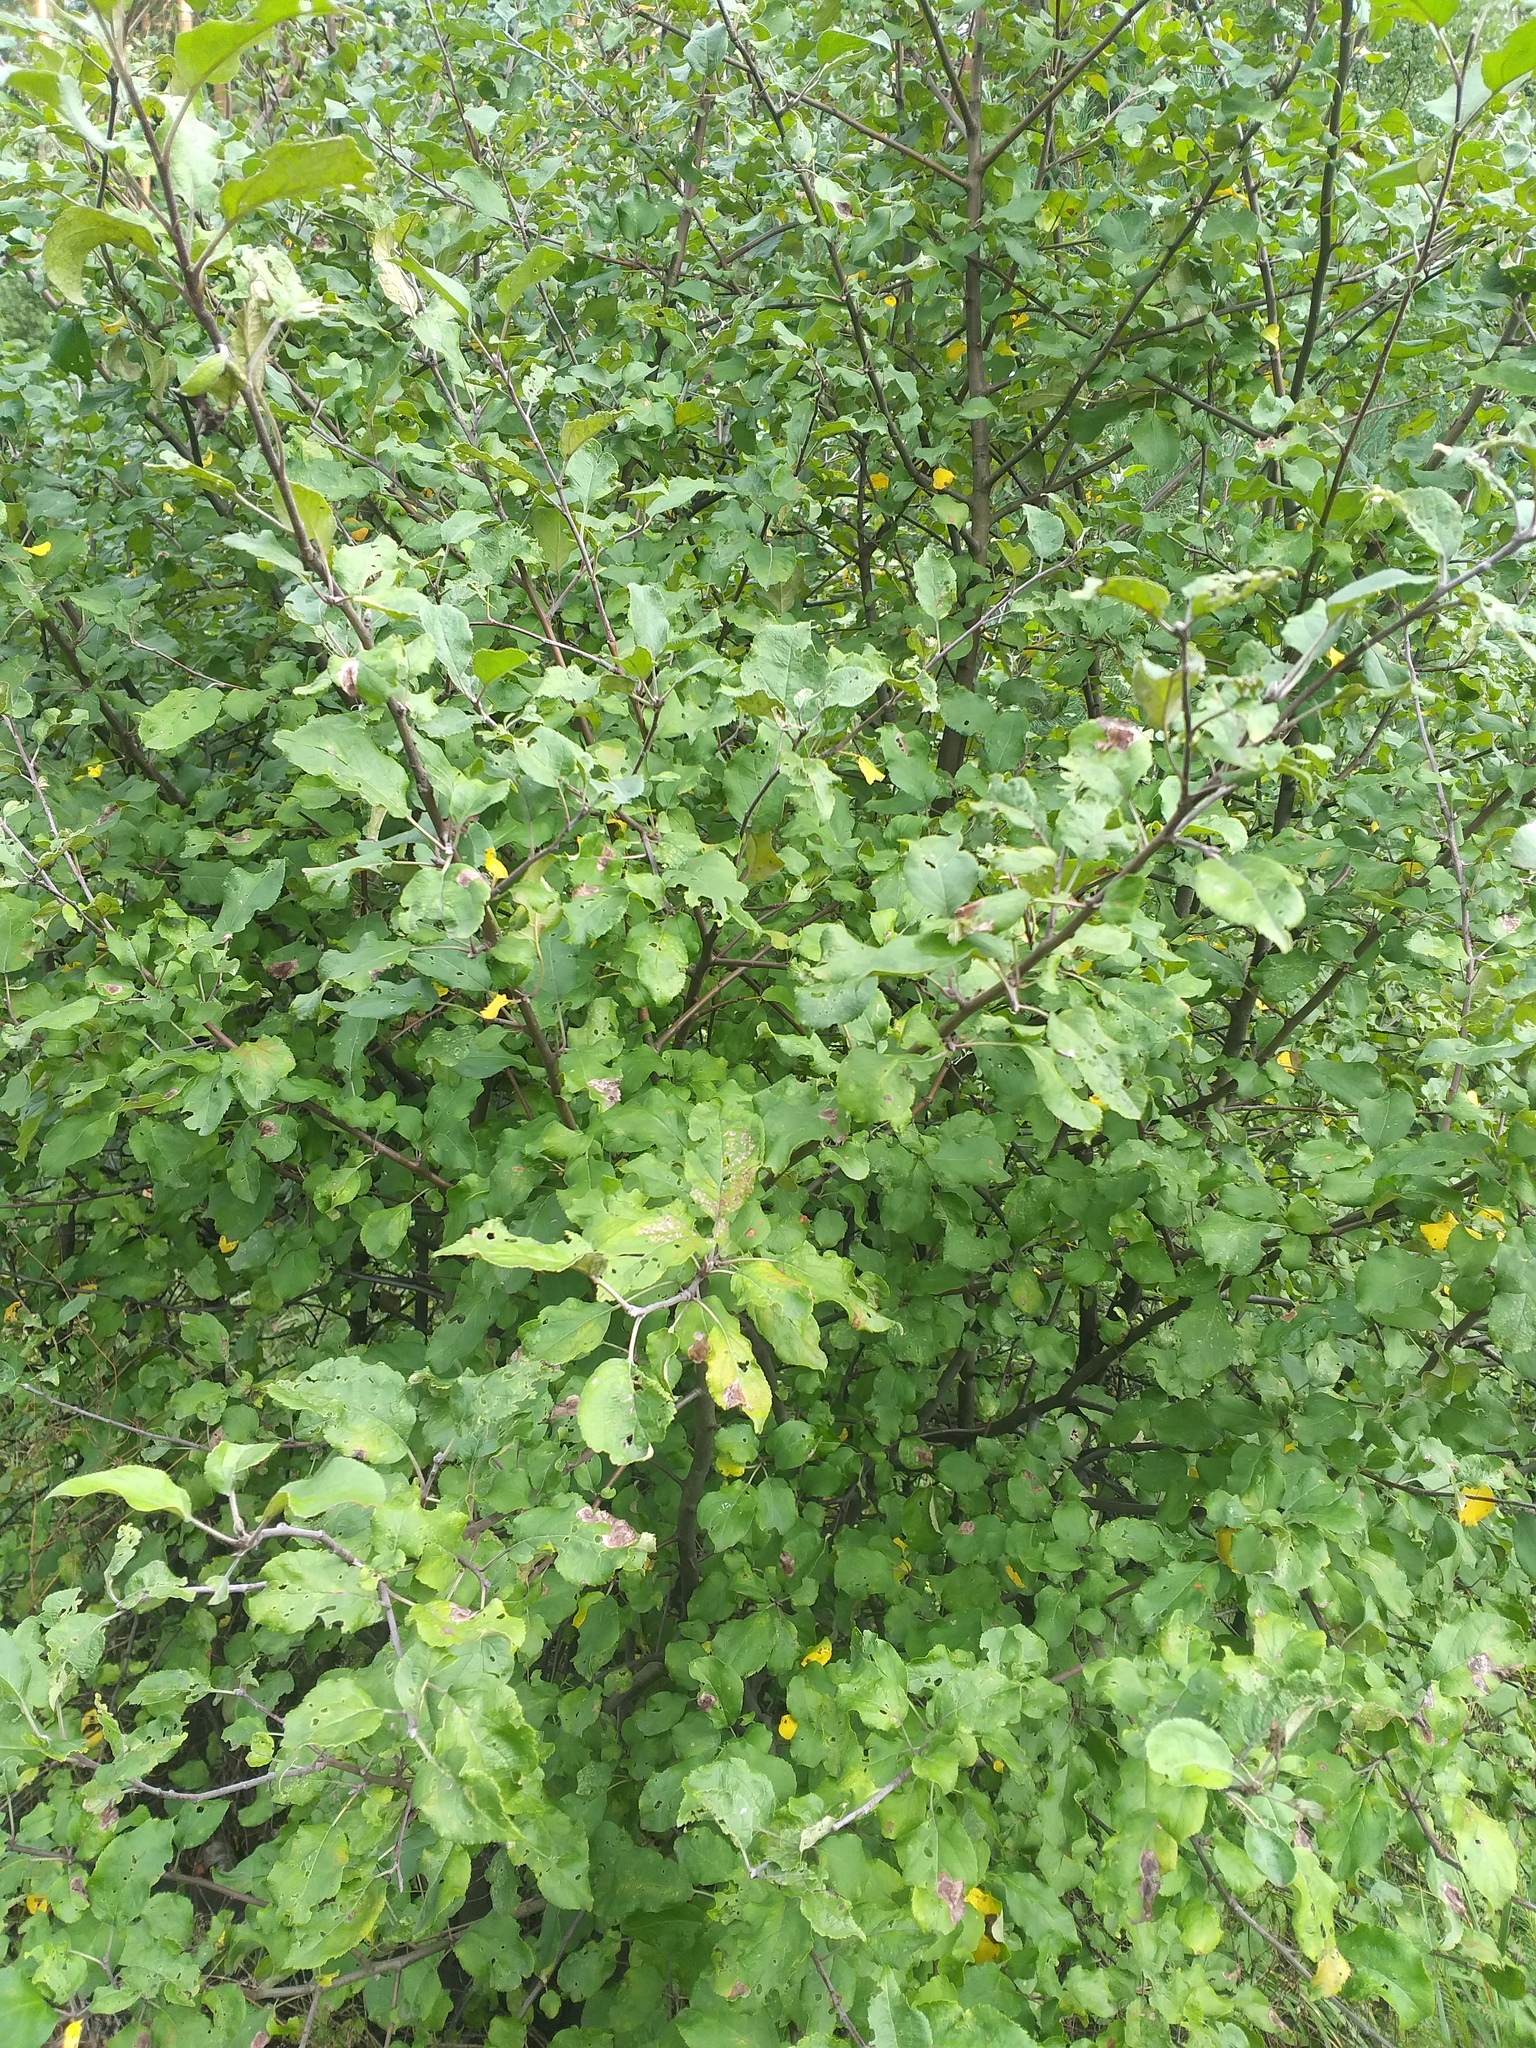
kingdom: Plantae
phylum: Tracheophyta
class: Magnoliopsida
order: Rosales
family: Rosaceae
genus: Malus
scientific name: Malus domestica
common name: Apple
